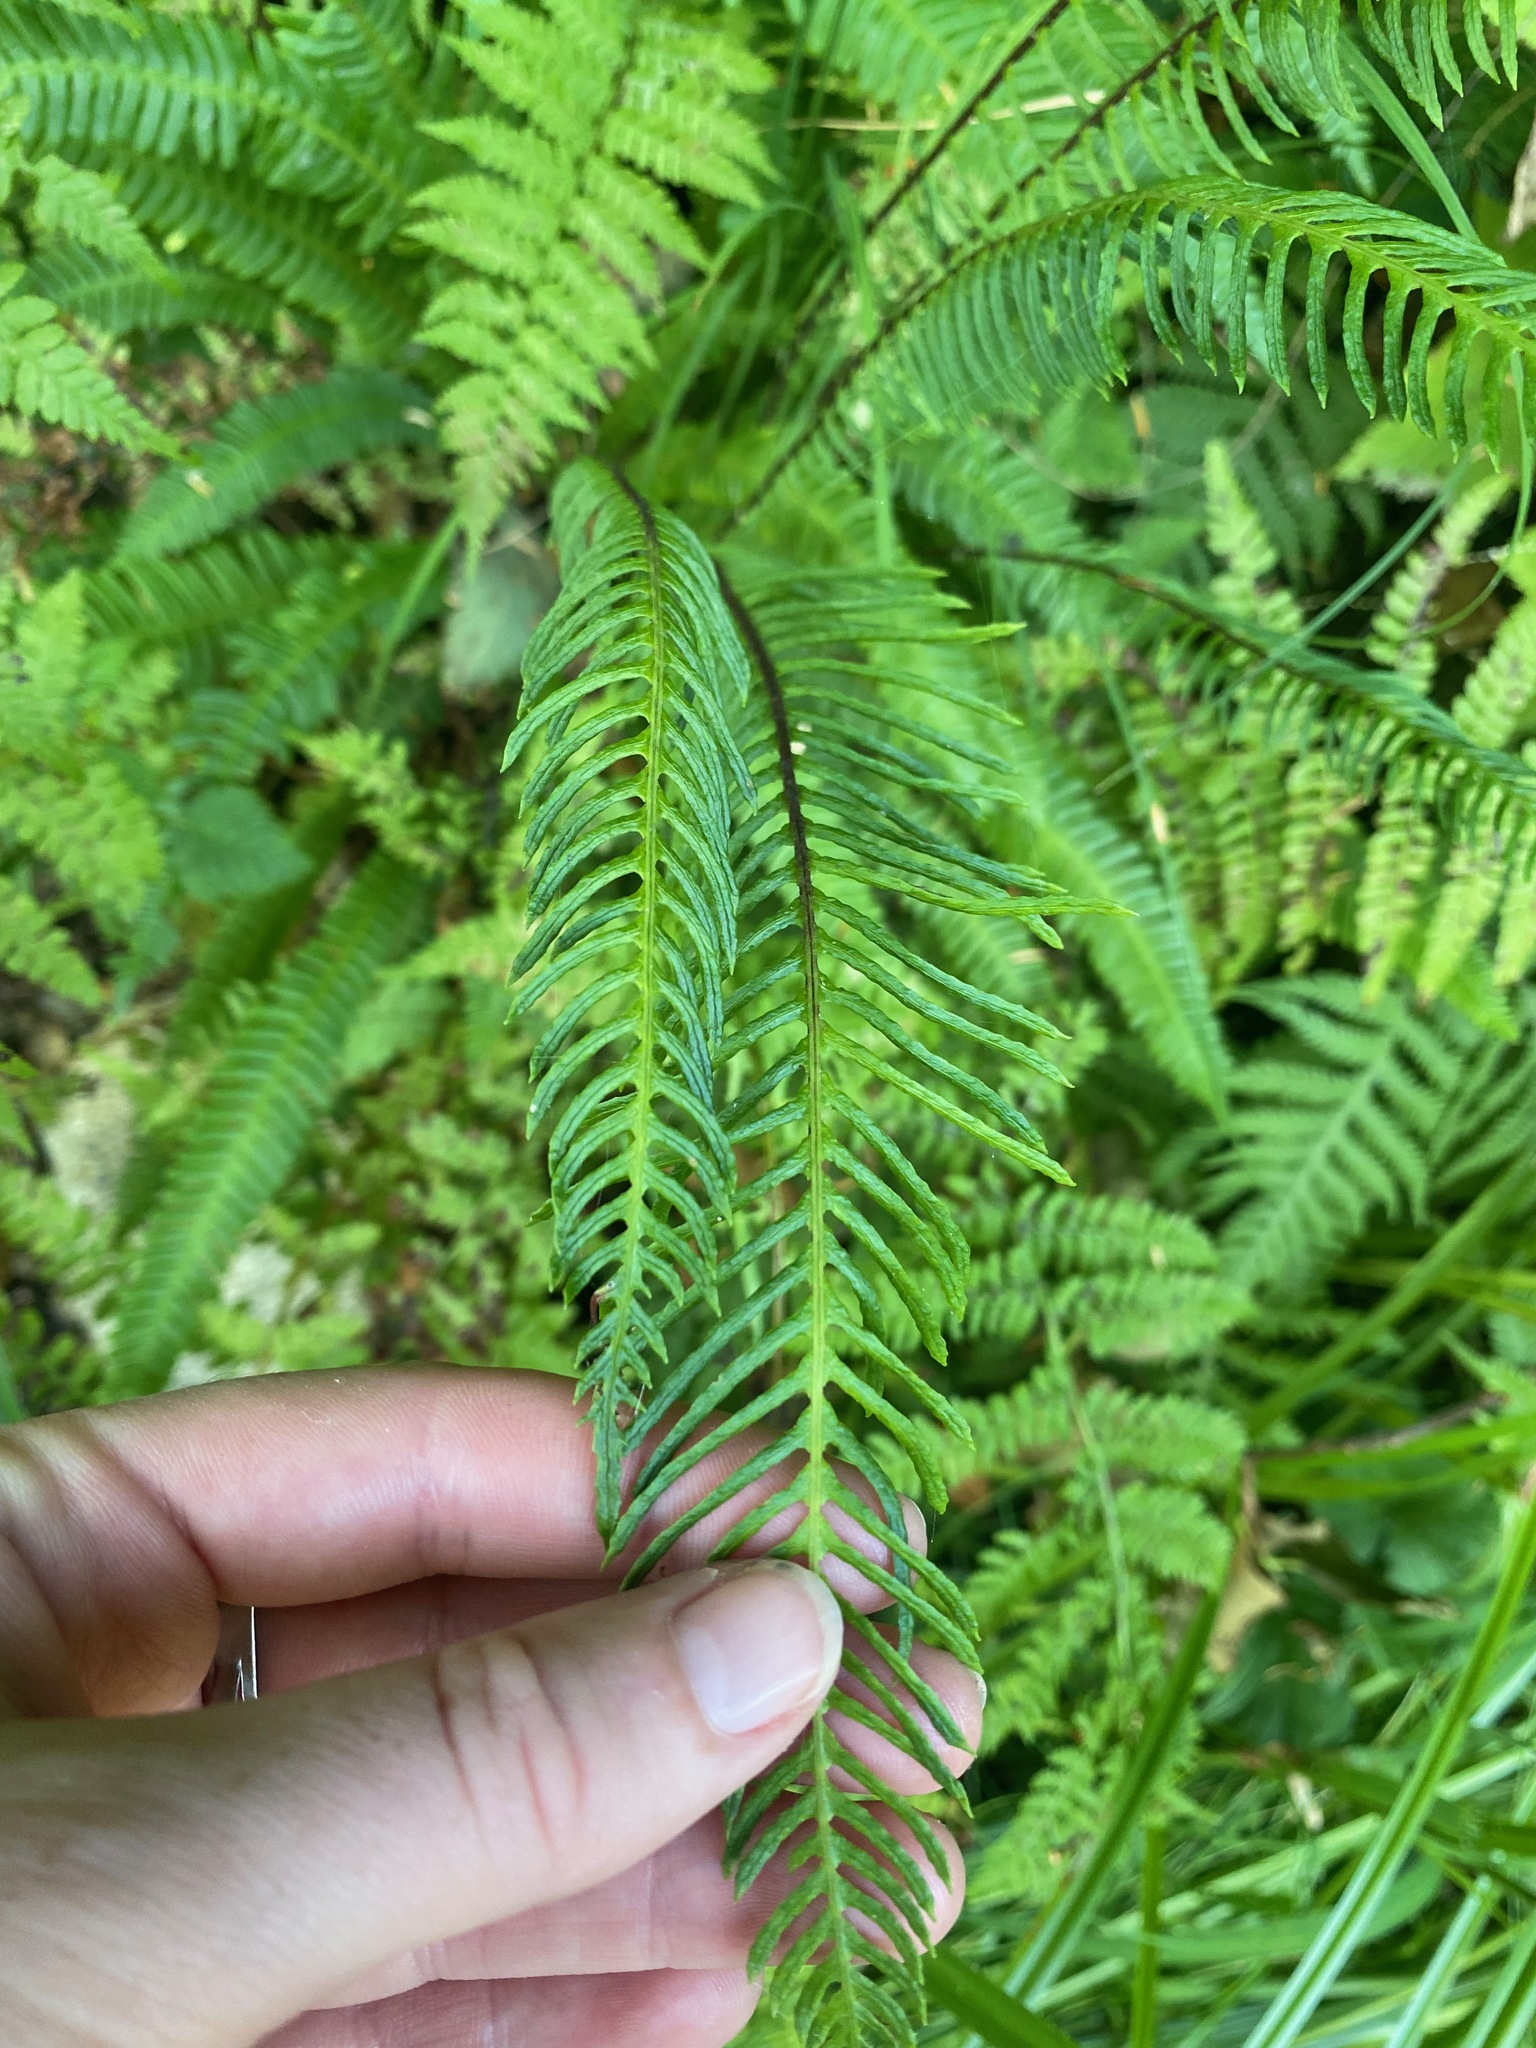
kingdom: Plantae
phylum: Tracheophyta
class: Polypodiopsida
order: Polypodiales
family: Blechnaceae
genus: Struthiopteris
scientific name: Struthiopteris spicant
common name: Deer fern
